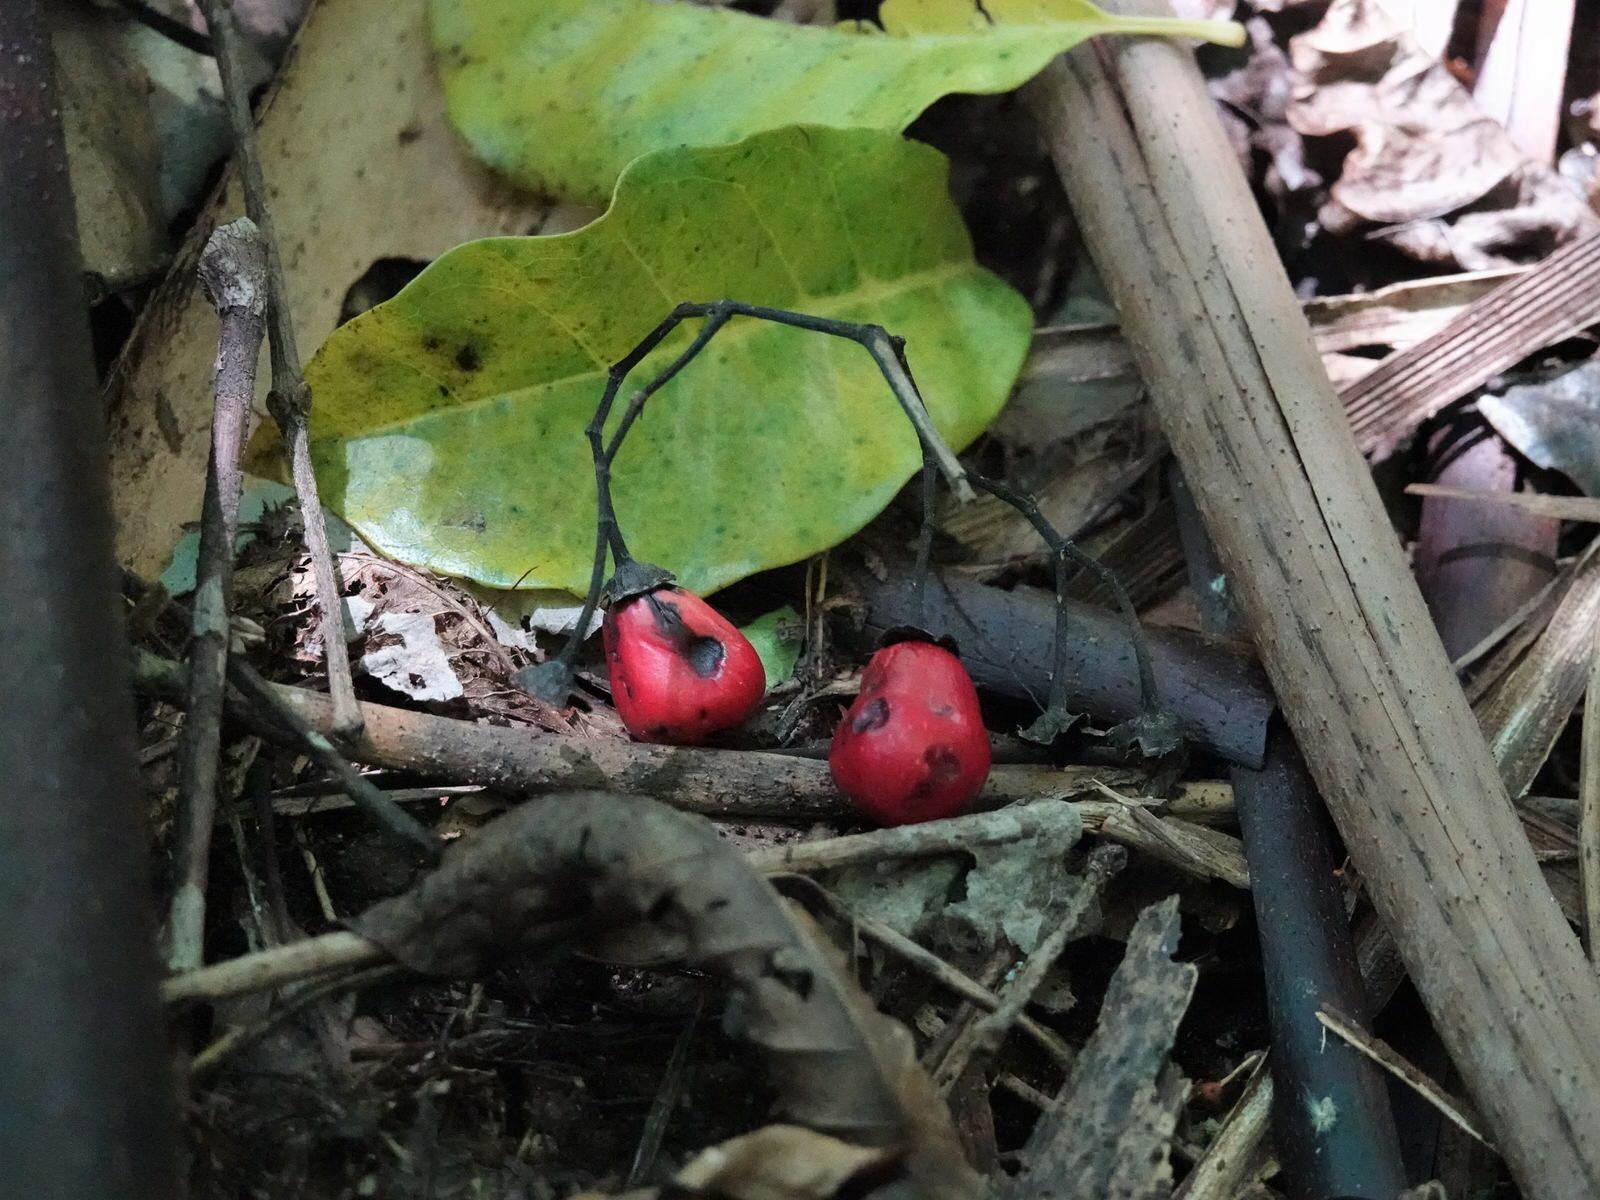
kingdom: Plantae
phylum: Tracheophyta
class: Magnoliopsida
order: Lamiales
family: Lamiaceae
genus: Vitex
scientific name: Vitex lucens
